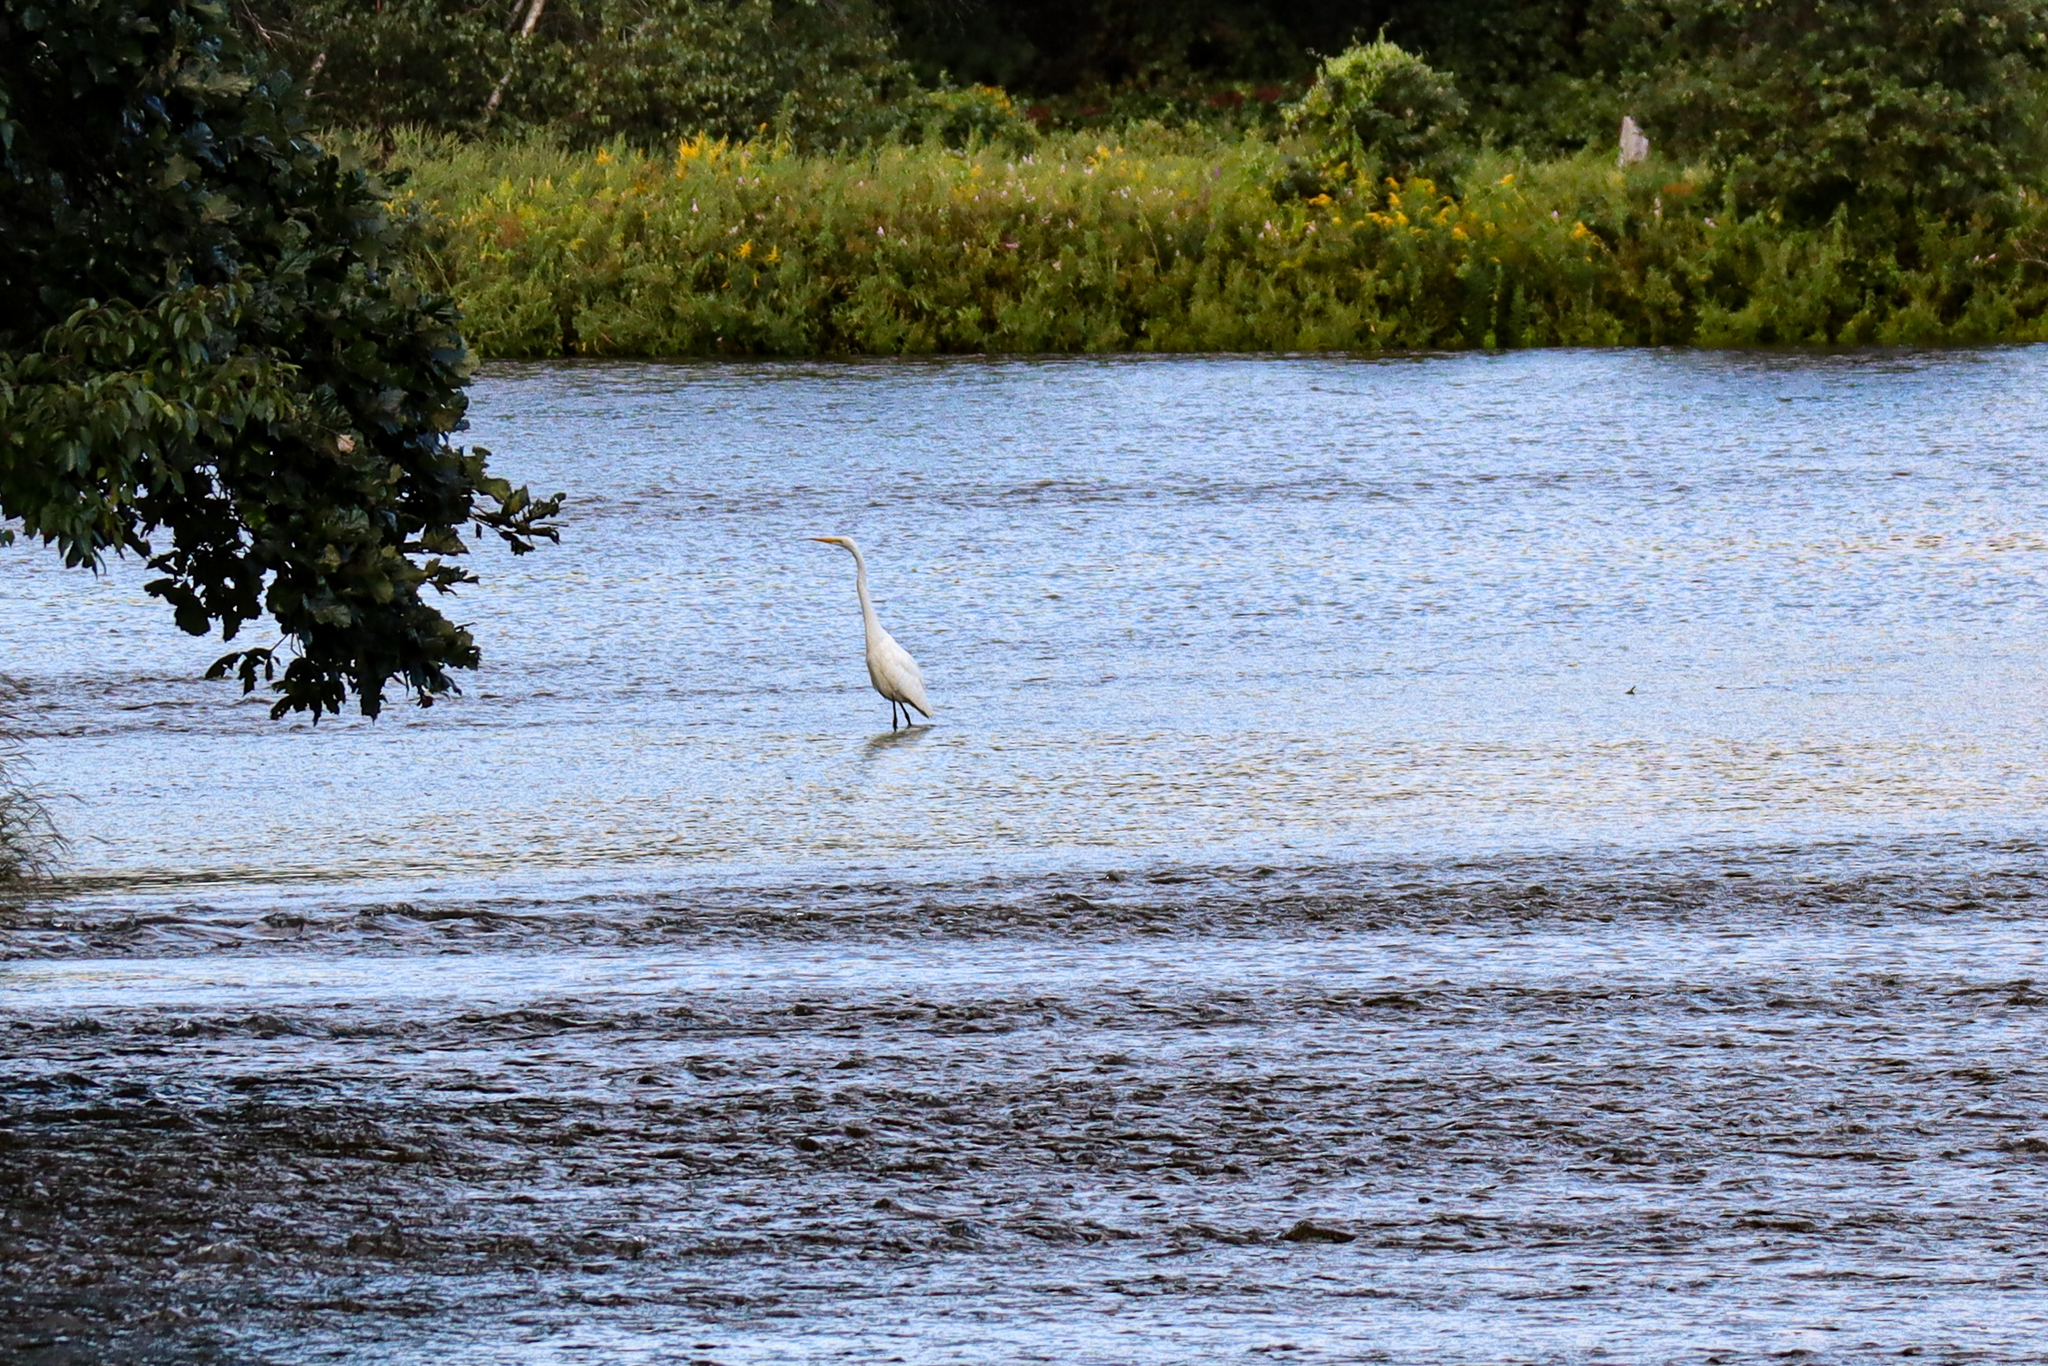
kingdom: Animalia
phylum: Chordata
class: Aves
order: Pelecaniformes
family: Ardeidae
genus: Ardea
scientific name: Ardea alba
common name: Great egret
